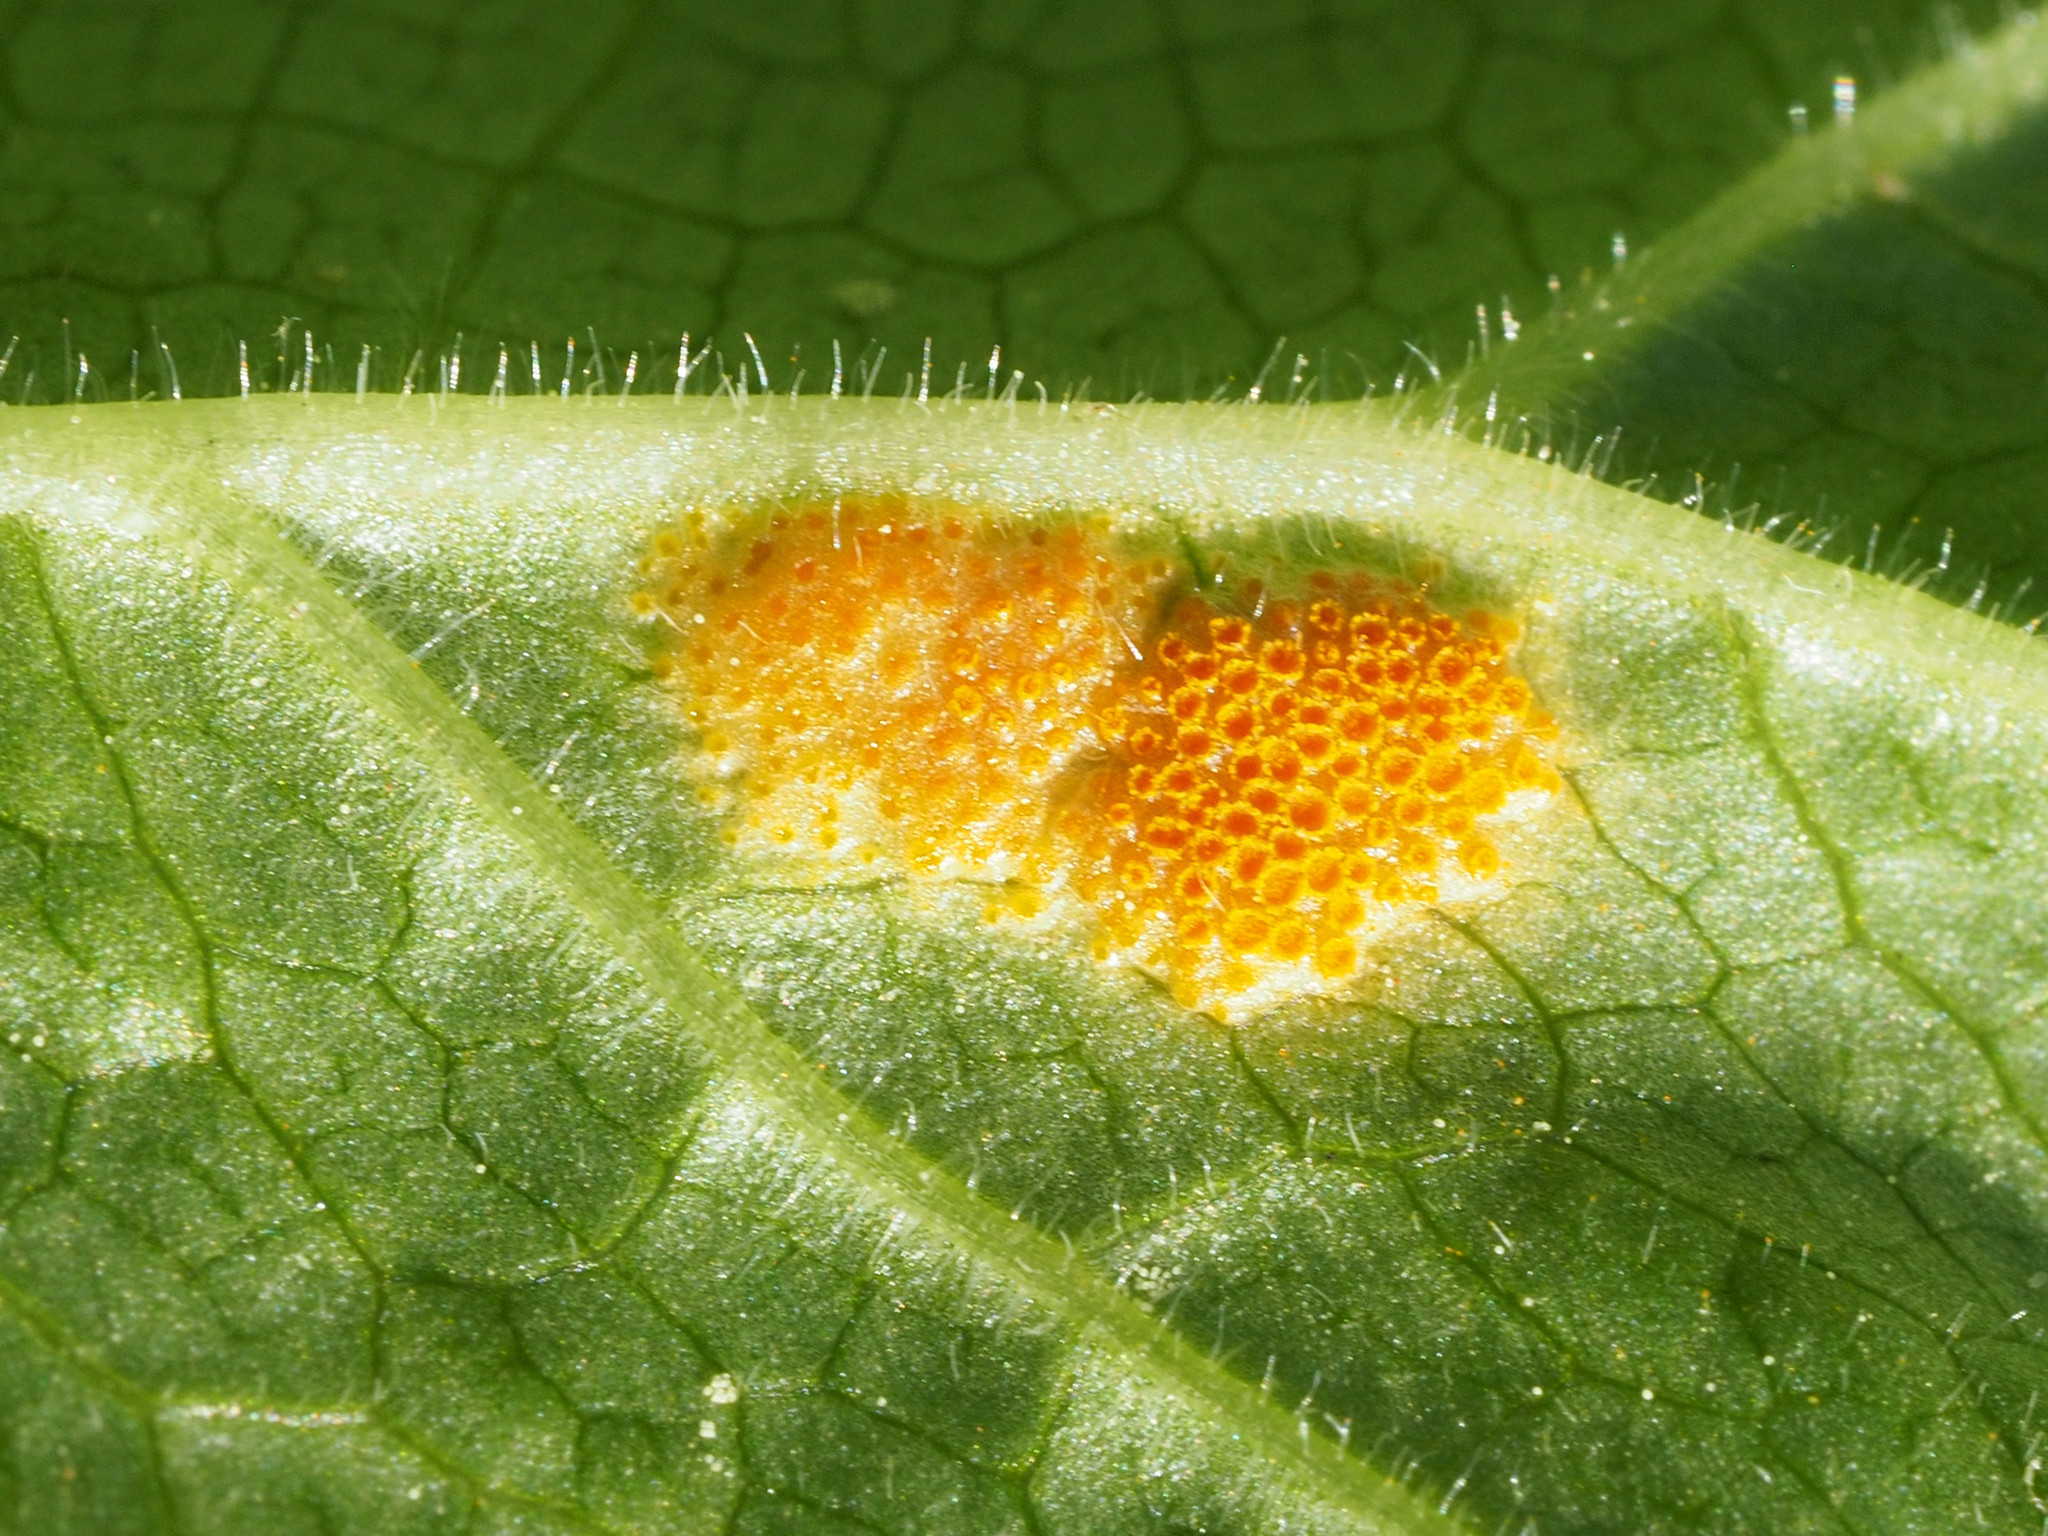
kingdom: Fungi
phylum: Basidiomycota
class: Pucciniomycetes
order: Pucciniales
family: Pucciniaceae
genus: Puccinia
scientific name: Puccinia podophylli
